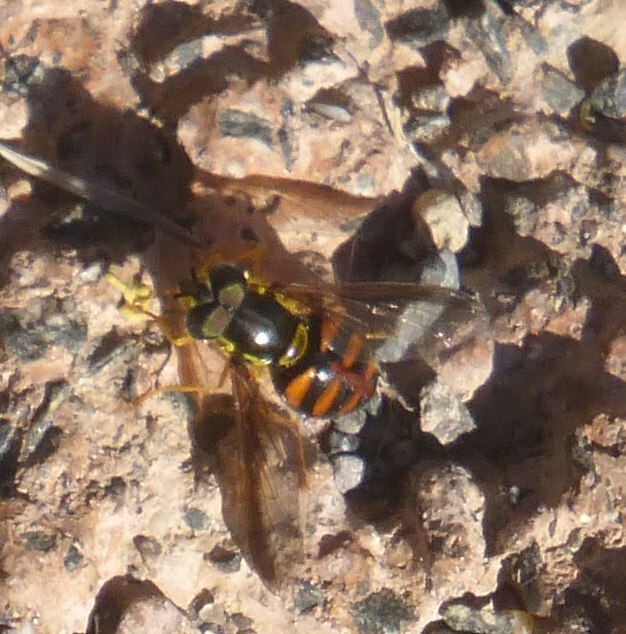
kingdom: Animalia
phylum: Arthropoda
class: Insecta
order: Diptera
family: Syrphidae
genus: Chrysotoxum
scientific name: Chrysotoxum triarcuatum
